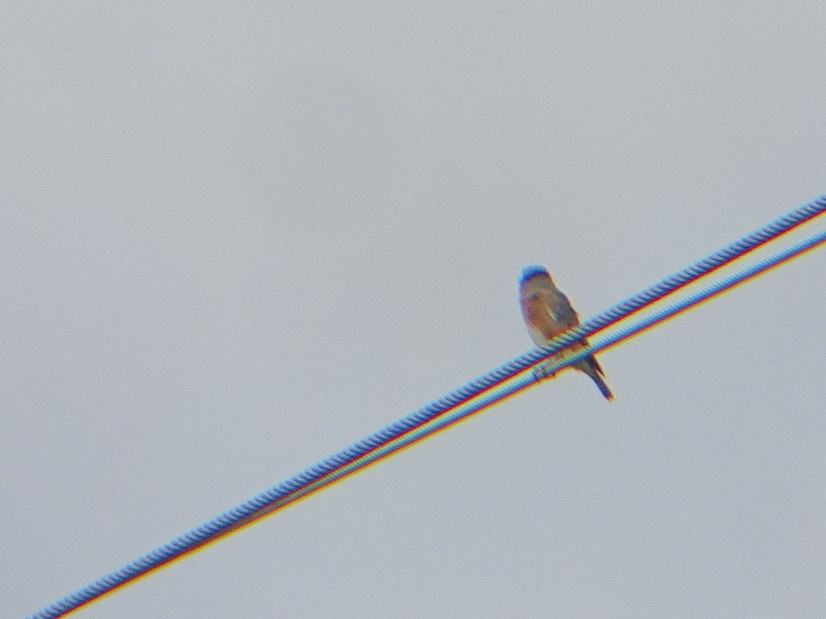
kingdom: Animalia
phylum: Chordata
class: Aves
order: Passeriformes
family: Turdidae
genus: Sialia
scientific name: Sialia sialis
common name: Eastern bluebird
